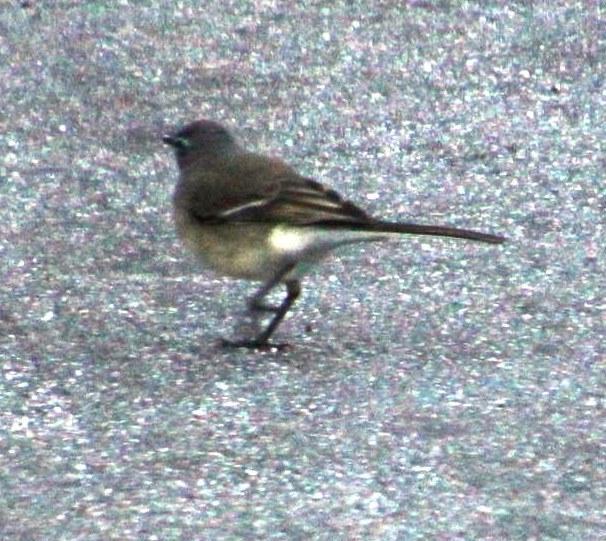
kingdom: Animalia
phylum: Chordata
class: Aves
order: Passeriformes
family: Motacillidae
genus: Motacilla
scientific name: Motacilla capensis
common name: Cape wagtail
